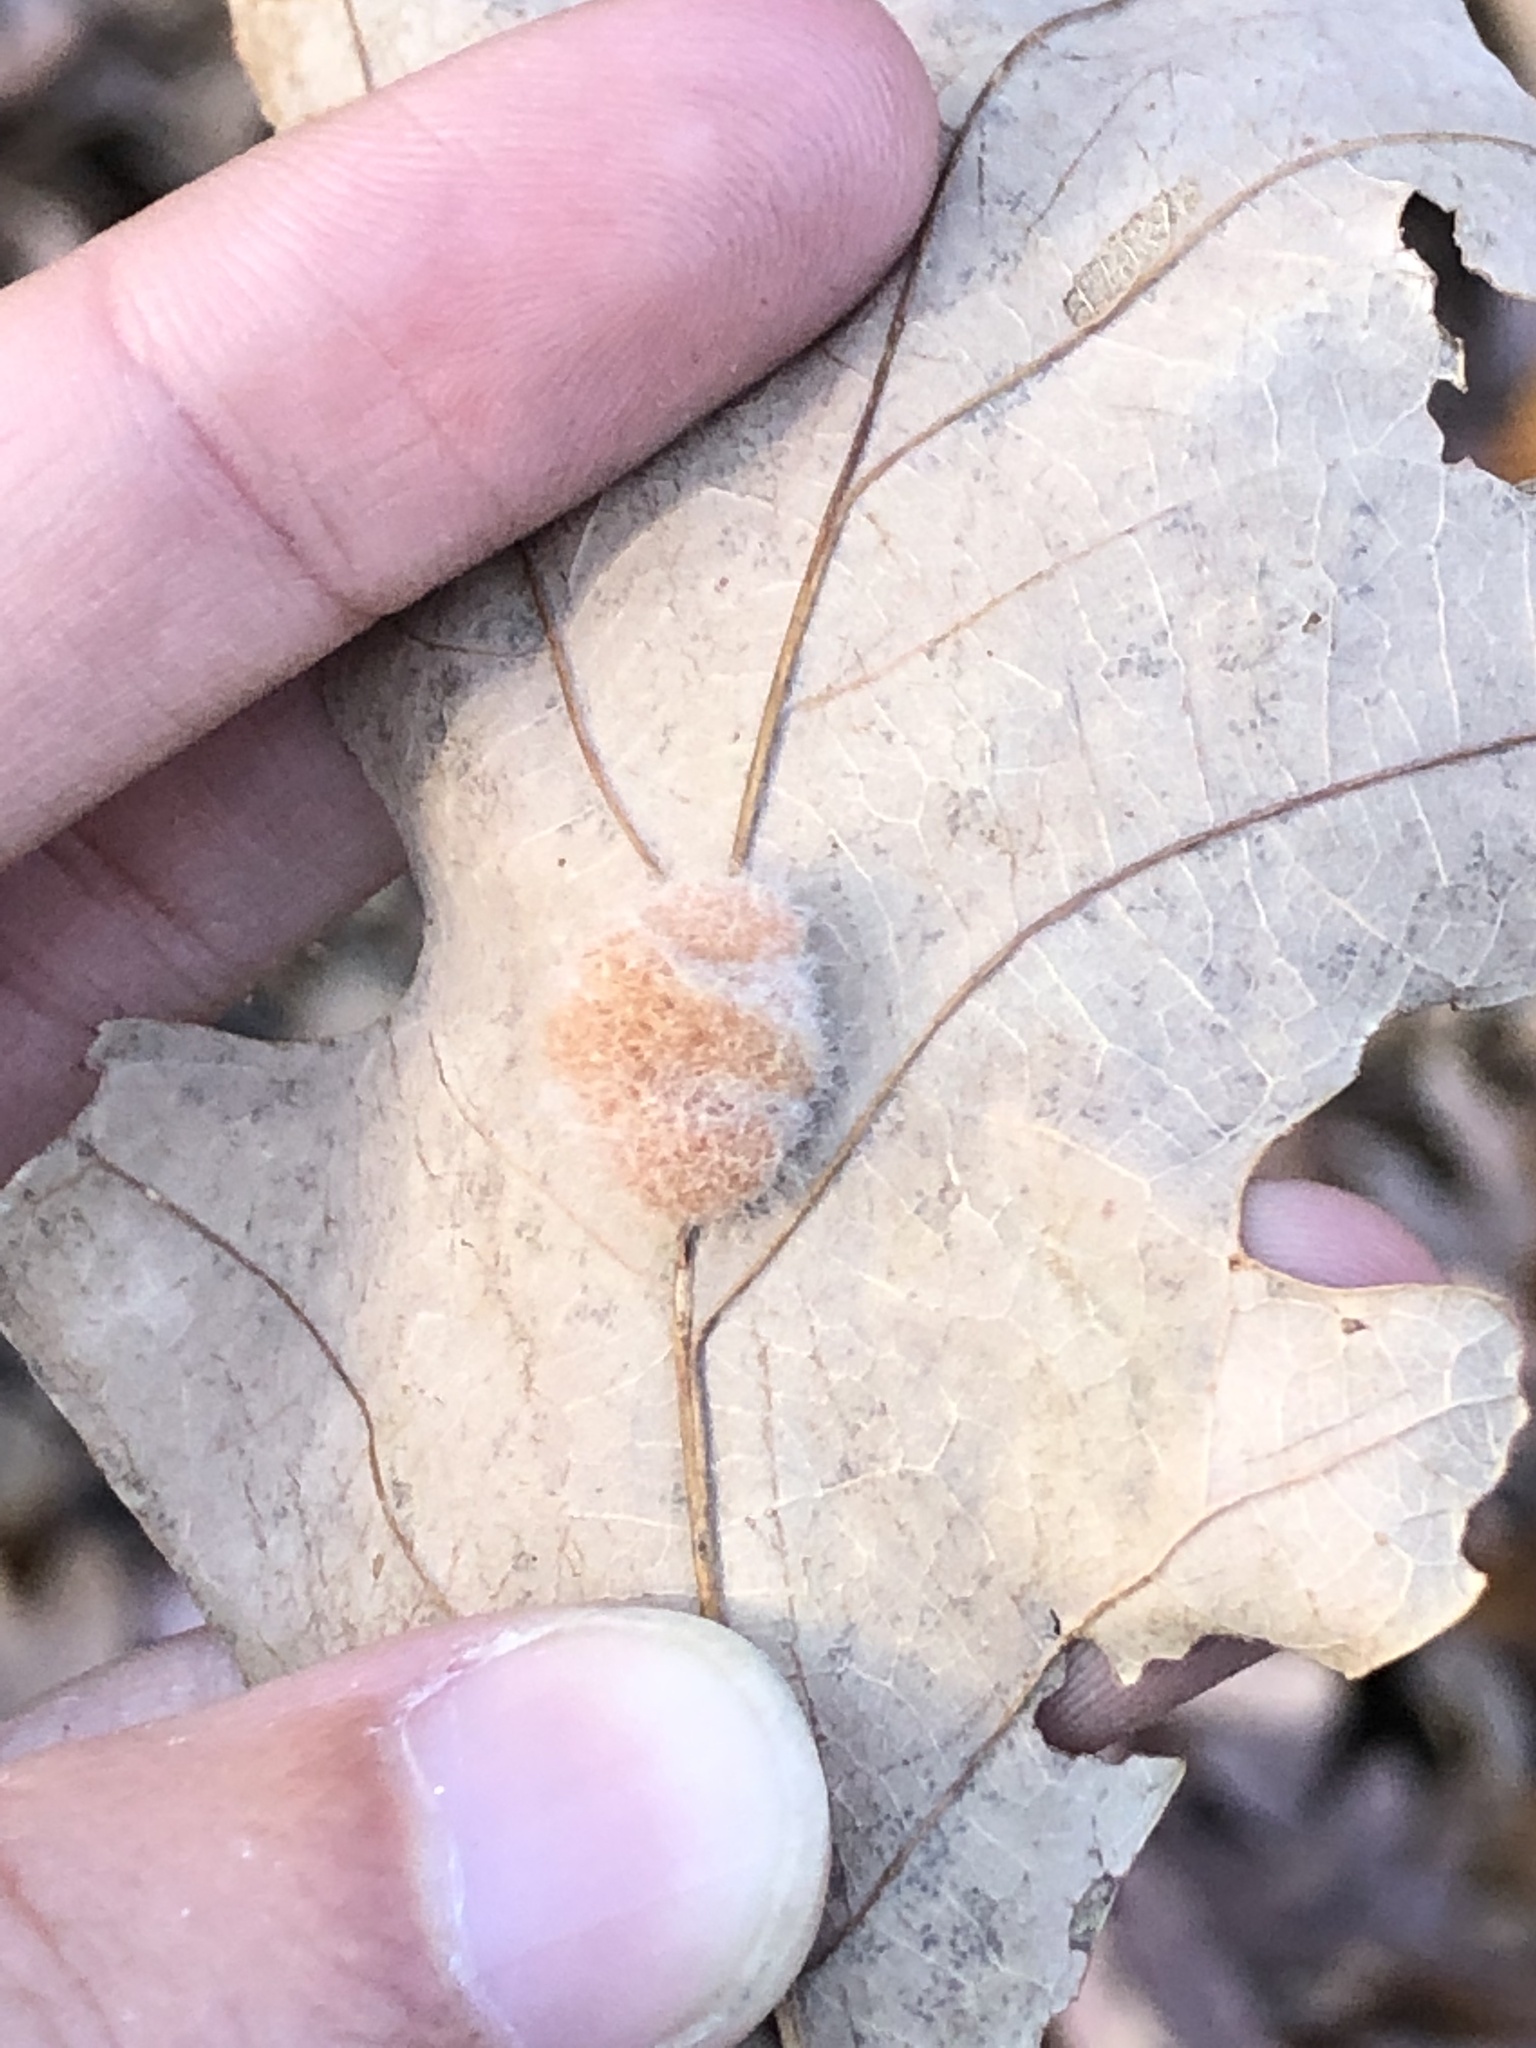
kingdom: Animalia
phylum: Arthropoda
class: Insecta
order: Hymenoptera
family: Cynipidae
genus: Andricus
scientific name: Andricus quercusflocci
